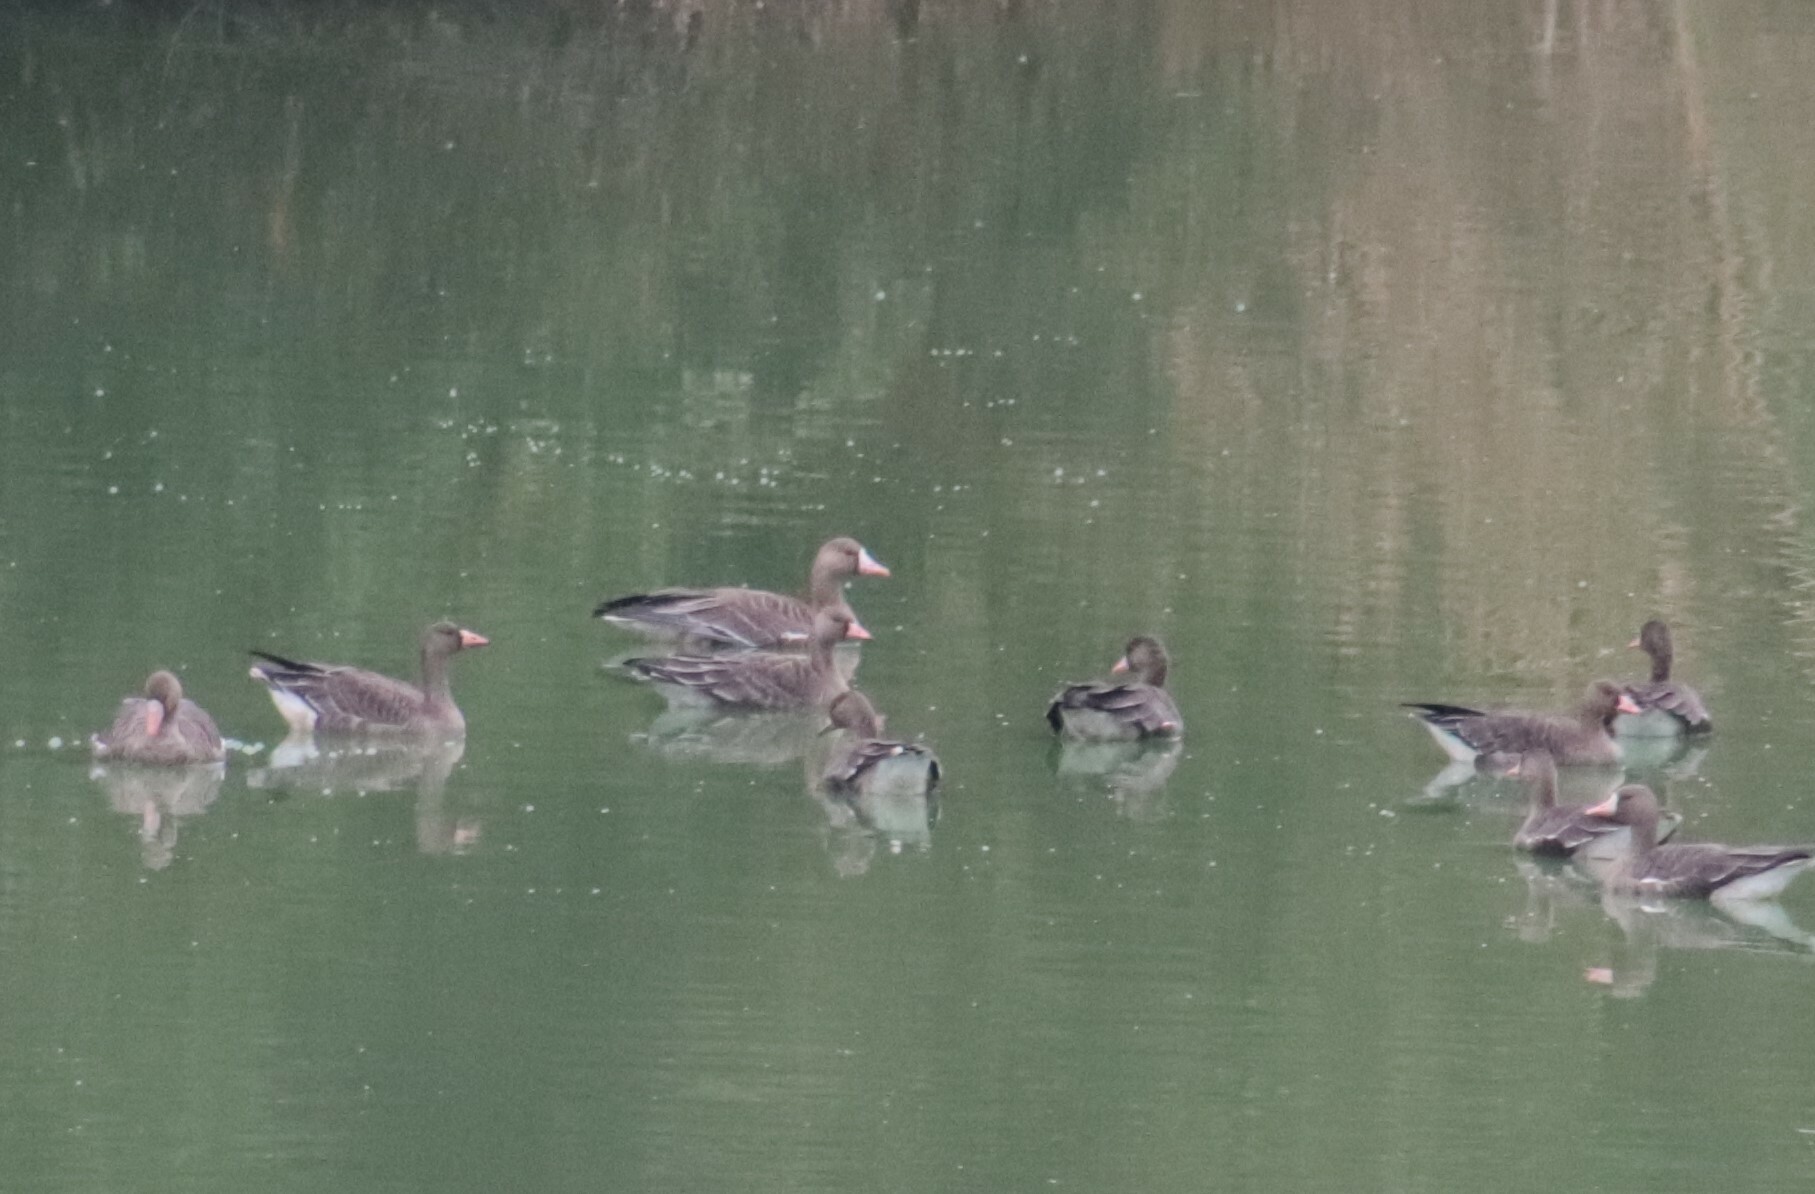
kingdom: Animalia
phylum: Chordata
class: Aves
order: Anseriformes
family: Anatidae
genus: Anser
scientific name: Anser albifrons
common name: Greater white-fronted goose
